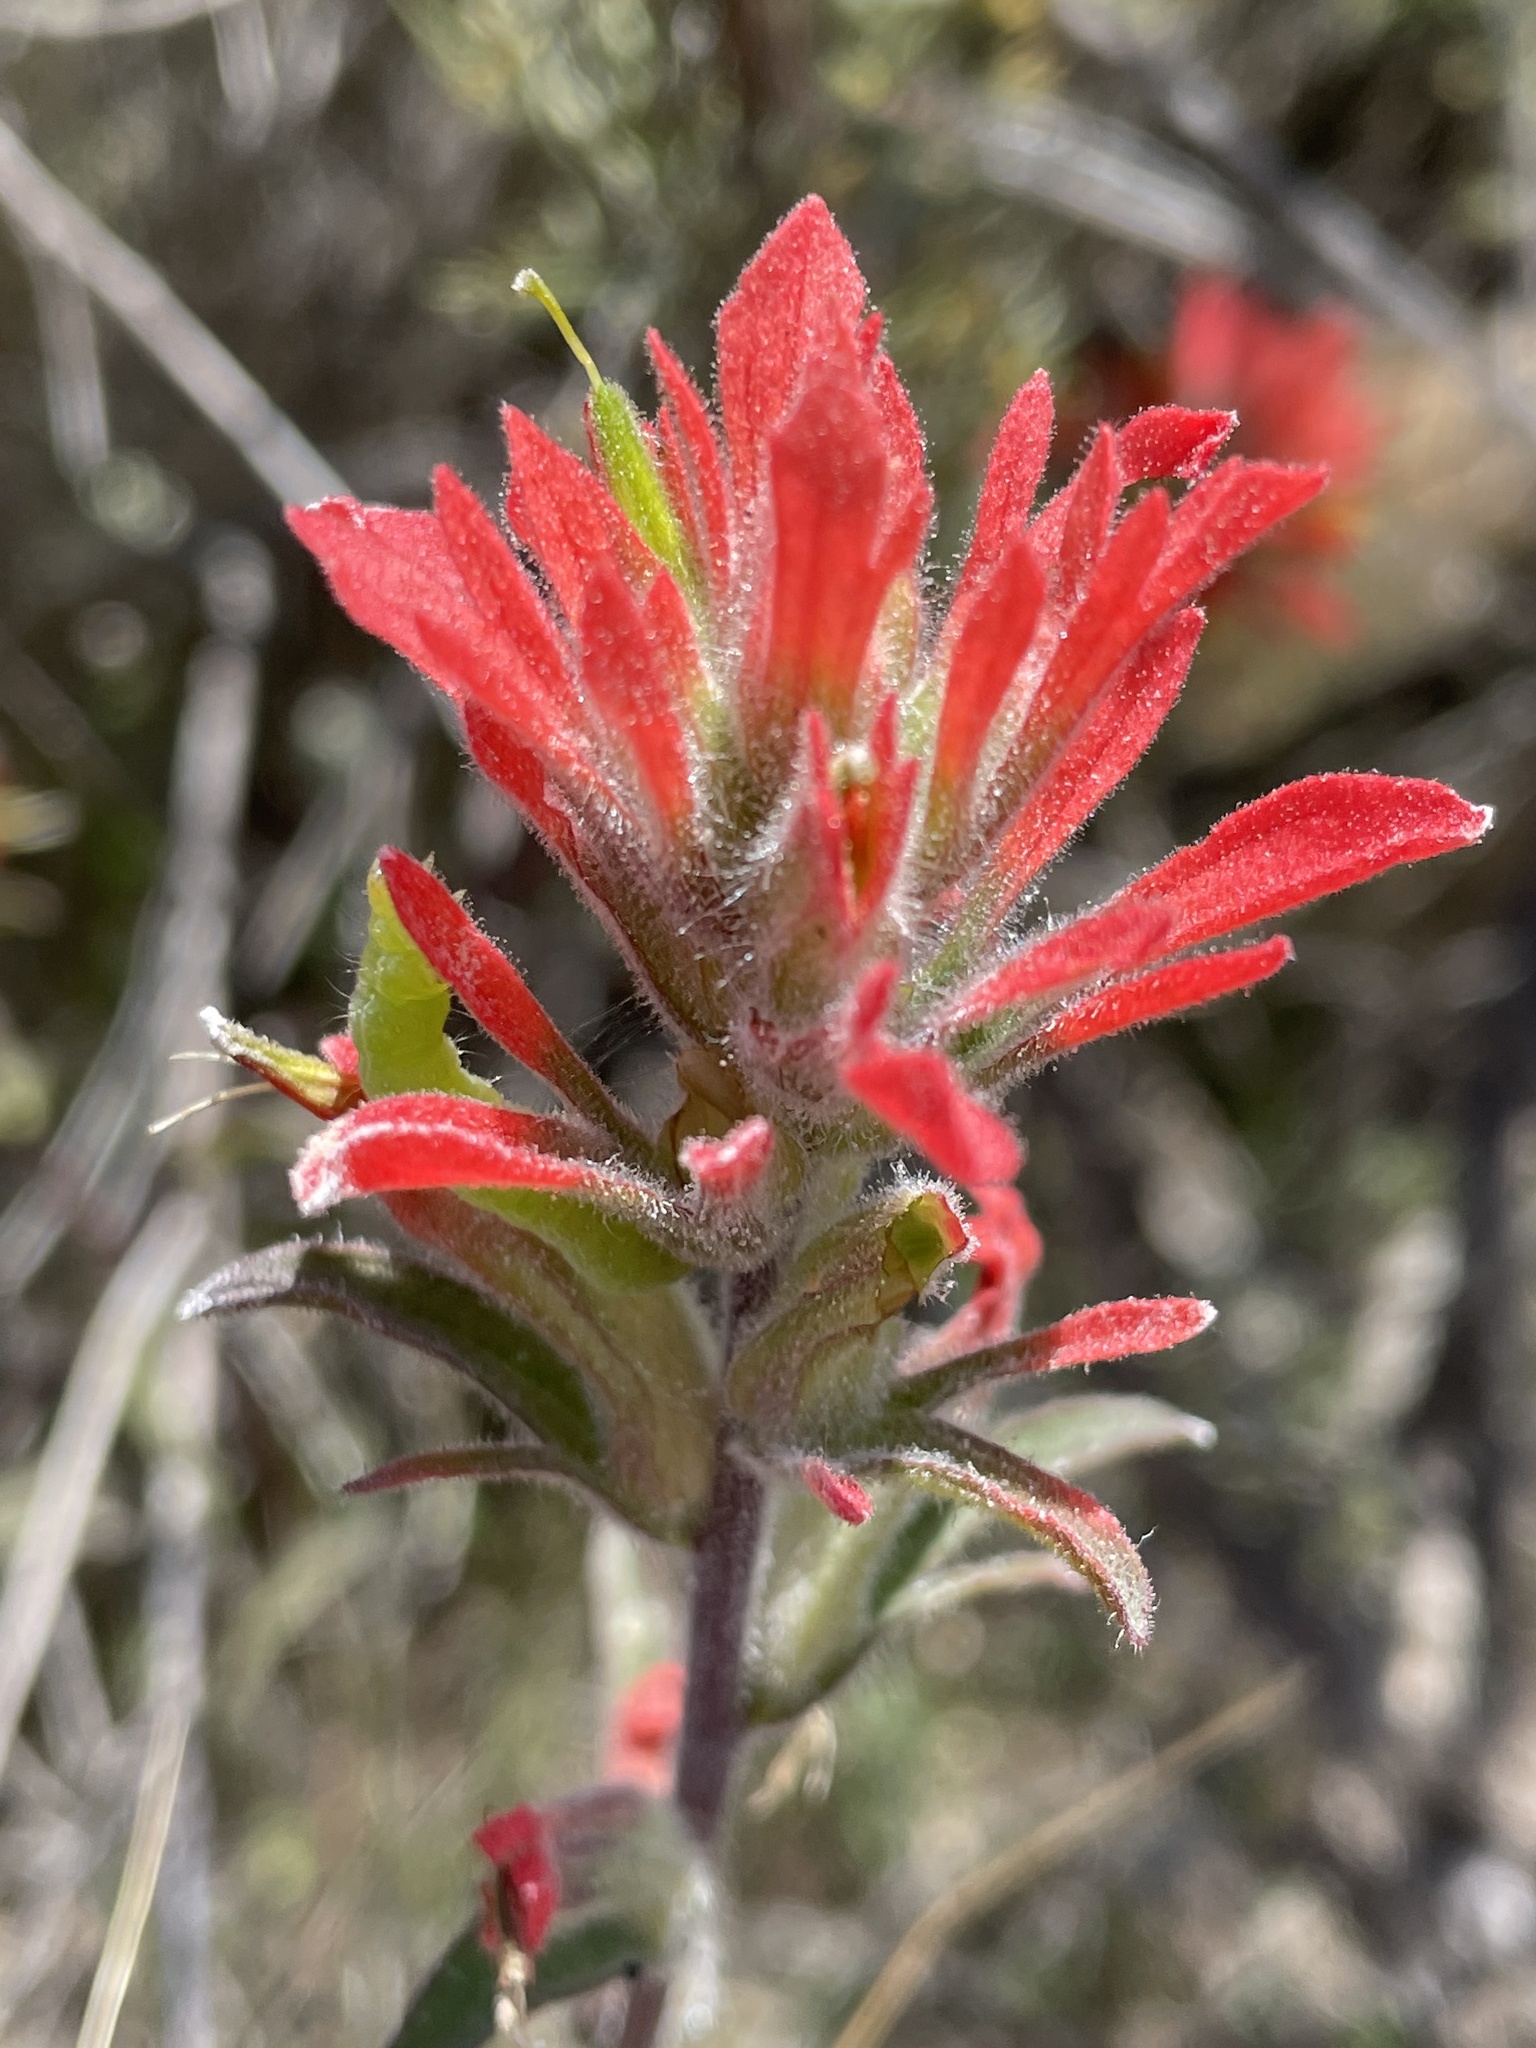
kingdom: Plantae
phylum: Tracheophyta
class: Magnoliopsida
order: Lamiales
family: Orobanchaceae
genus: Castilleja
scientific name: Castilleja affinis
